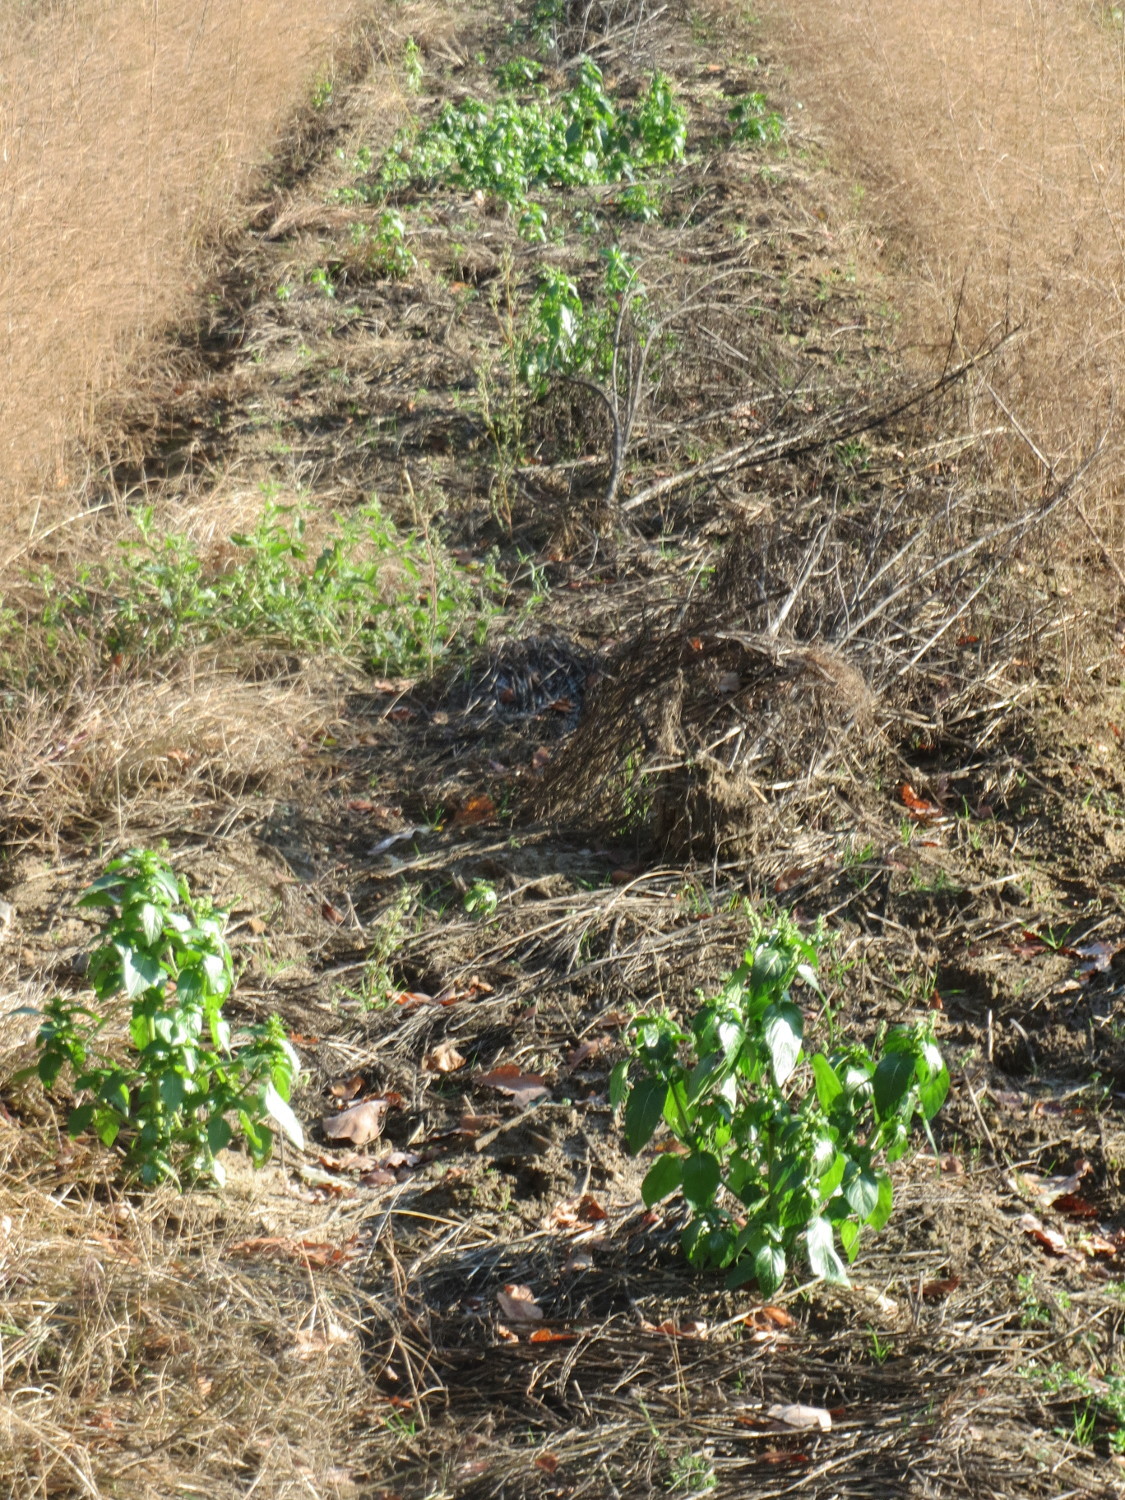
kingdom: Plantae
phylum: Tracheophyta
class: Magnoliopsida
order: Malpighiales
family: Euphorbiaceae
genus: Mercurialis
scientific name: Mercurialis annua
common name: Annual mercury
